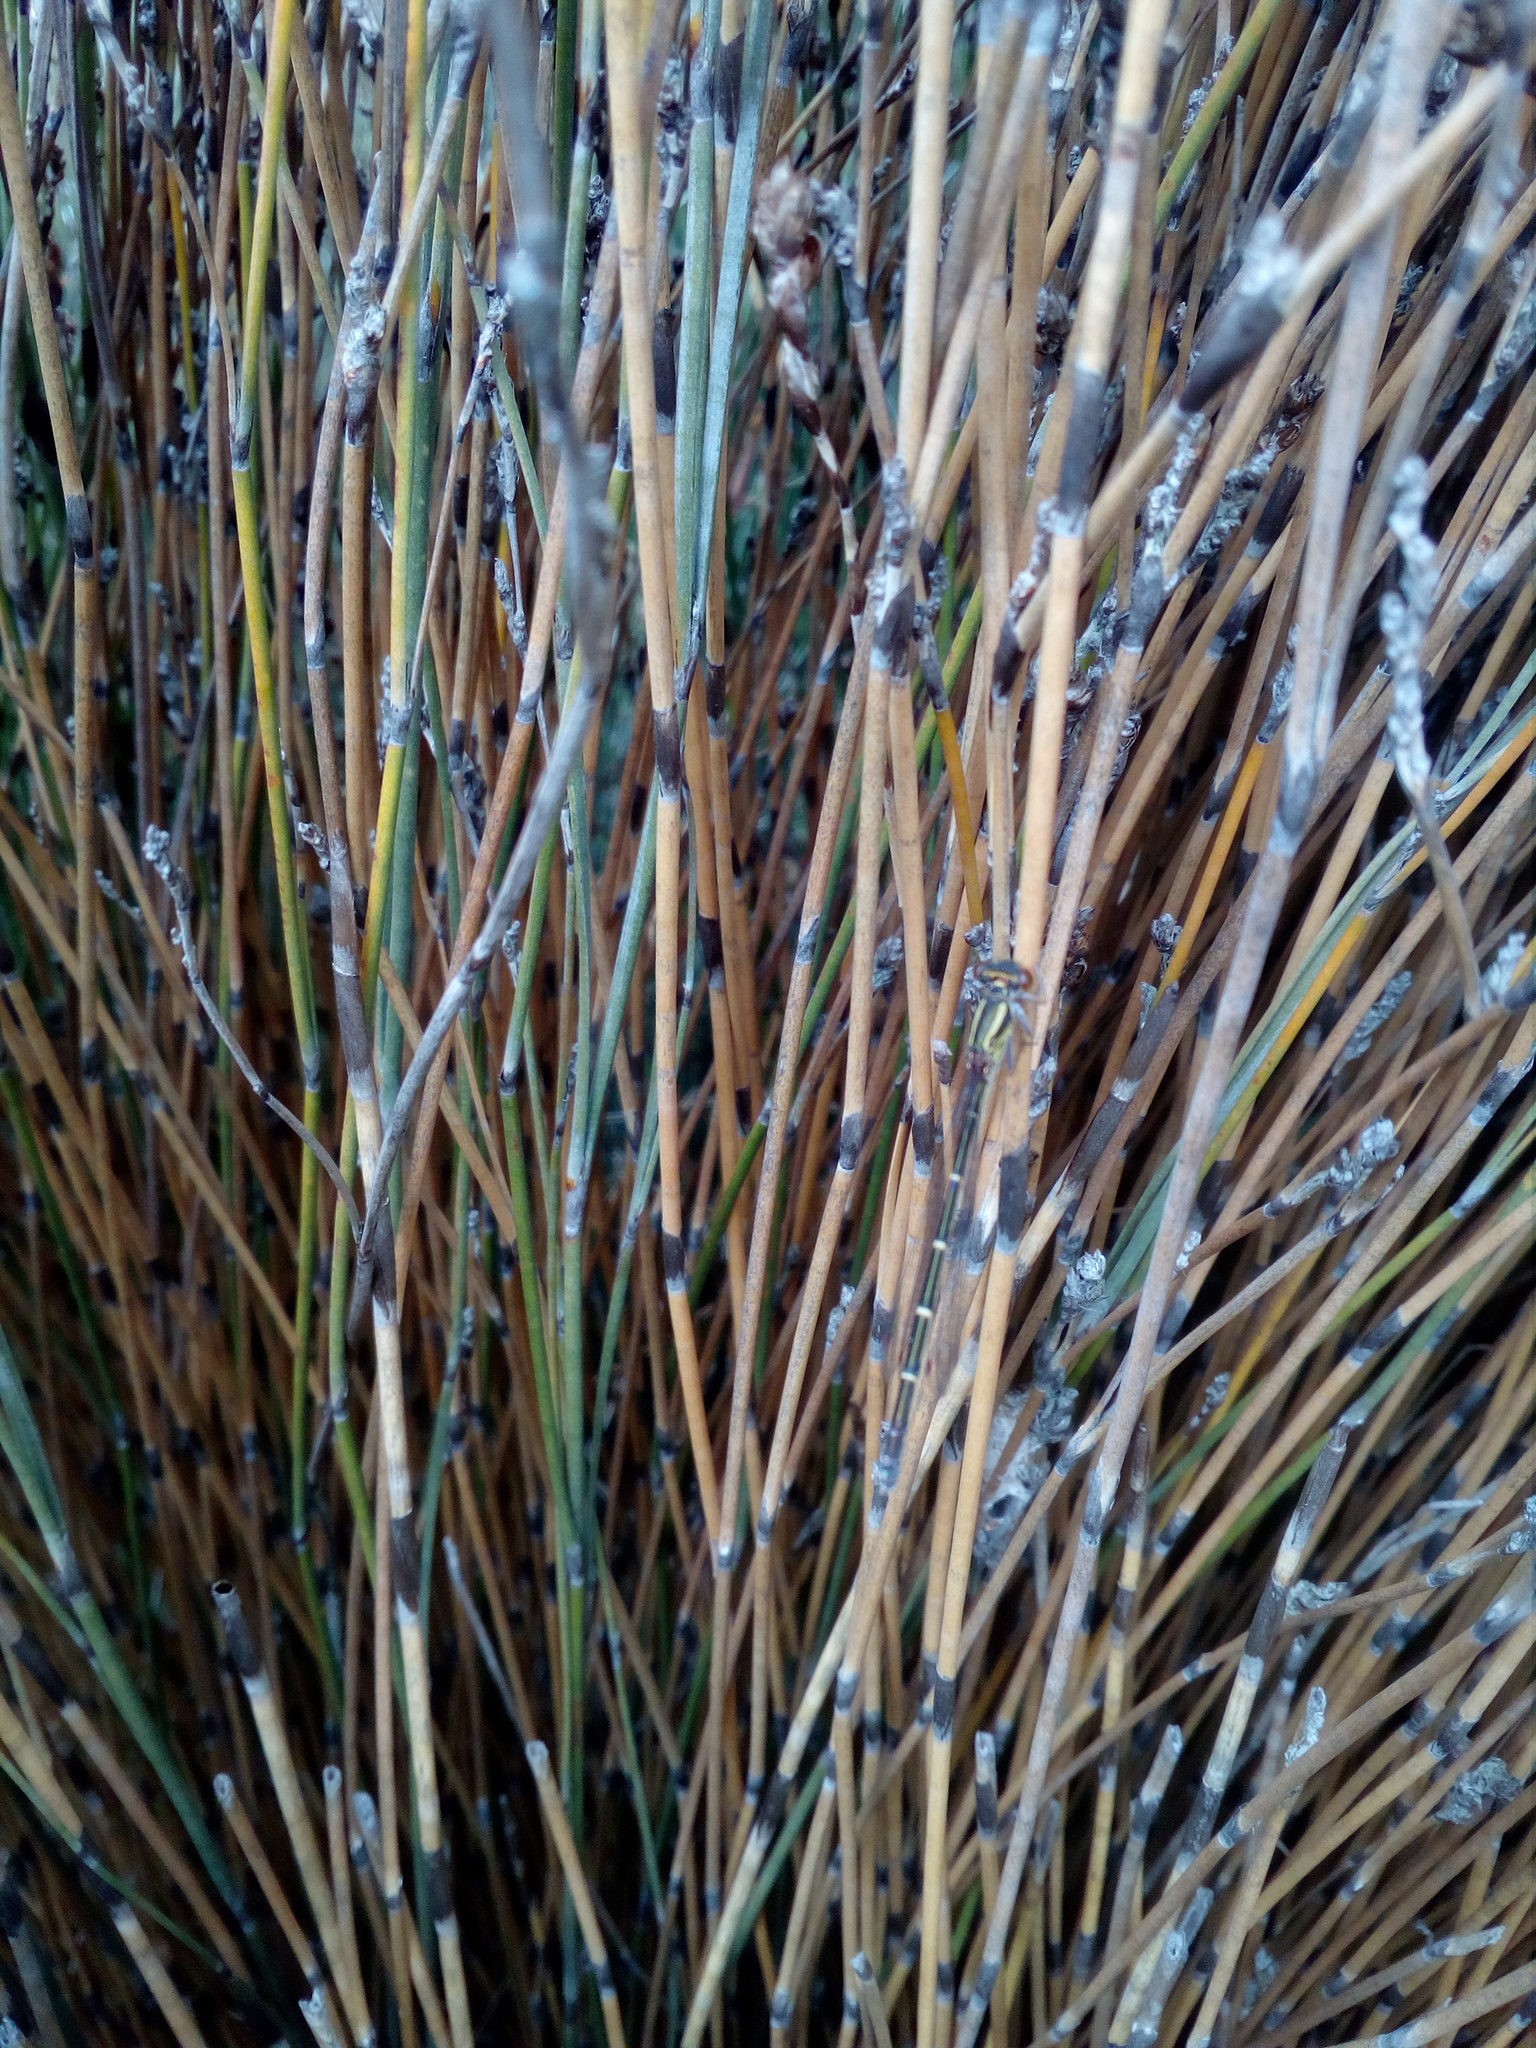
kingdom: Animalia
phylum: Arthropoda
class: Insecta
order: Odonata
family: Coenagrionidae
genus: Xanthocnemis
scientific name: Xanthocnemis zealandica
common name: Common redcoat damselfly
